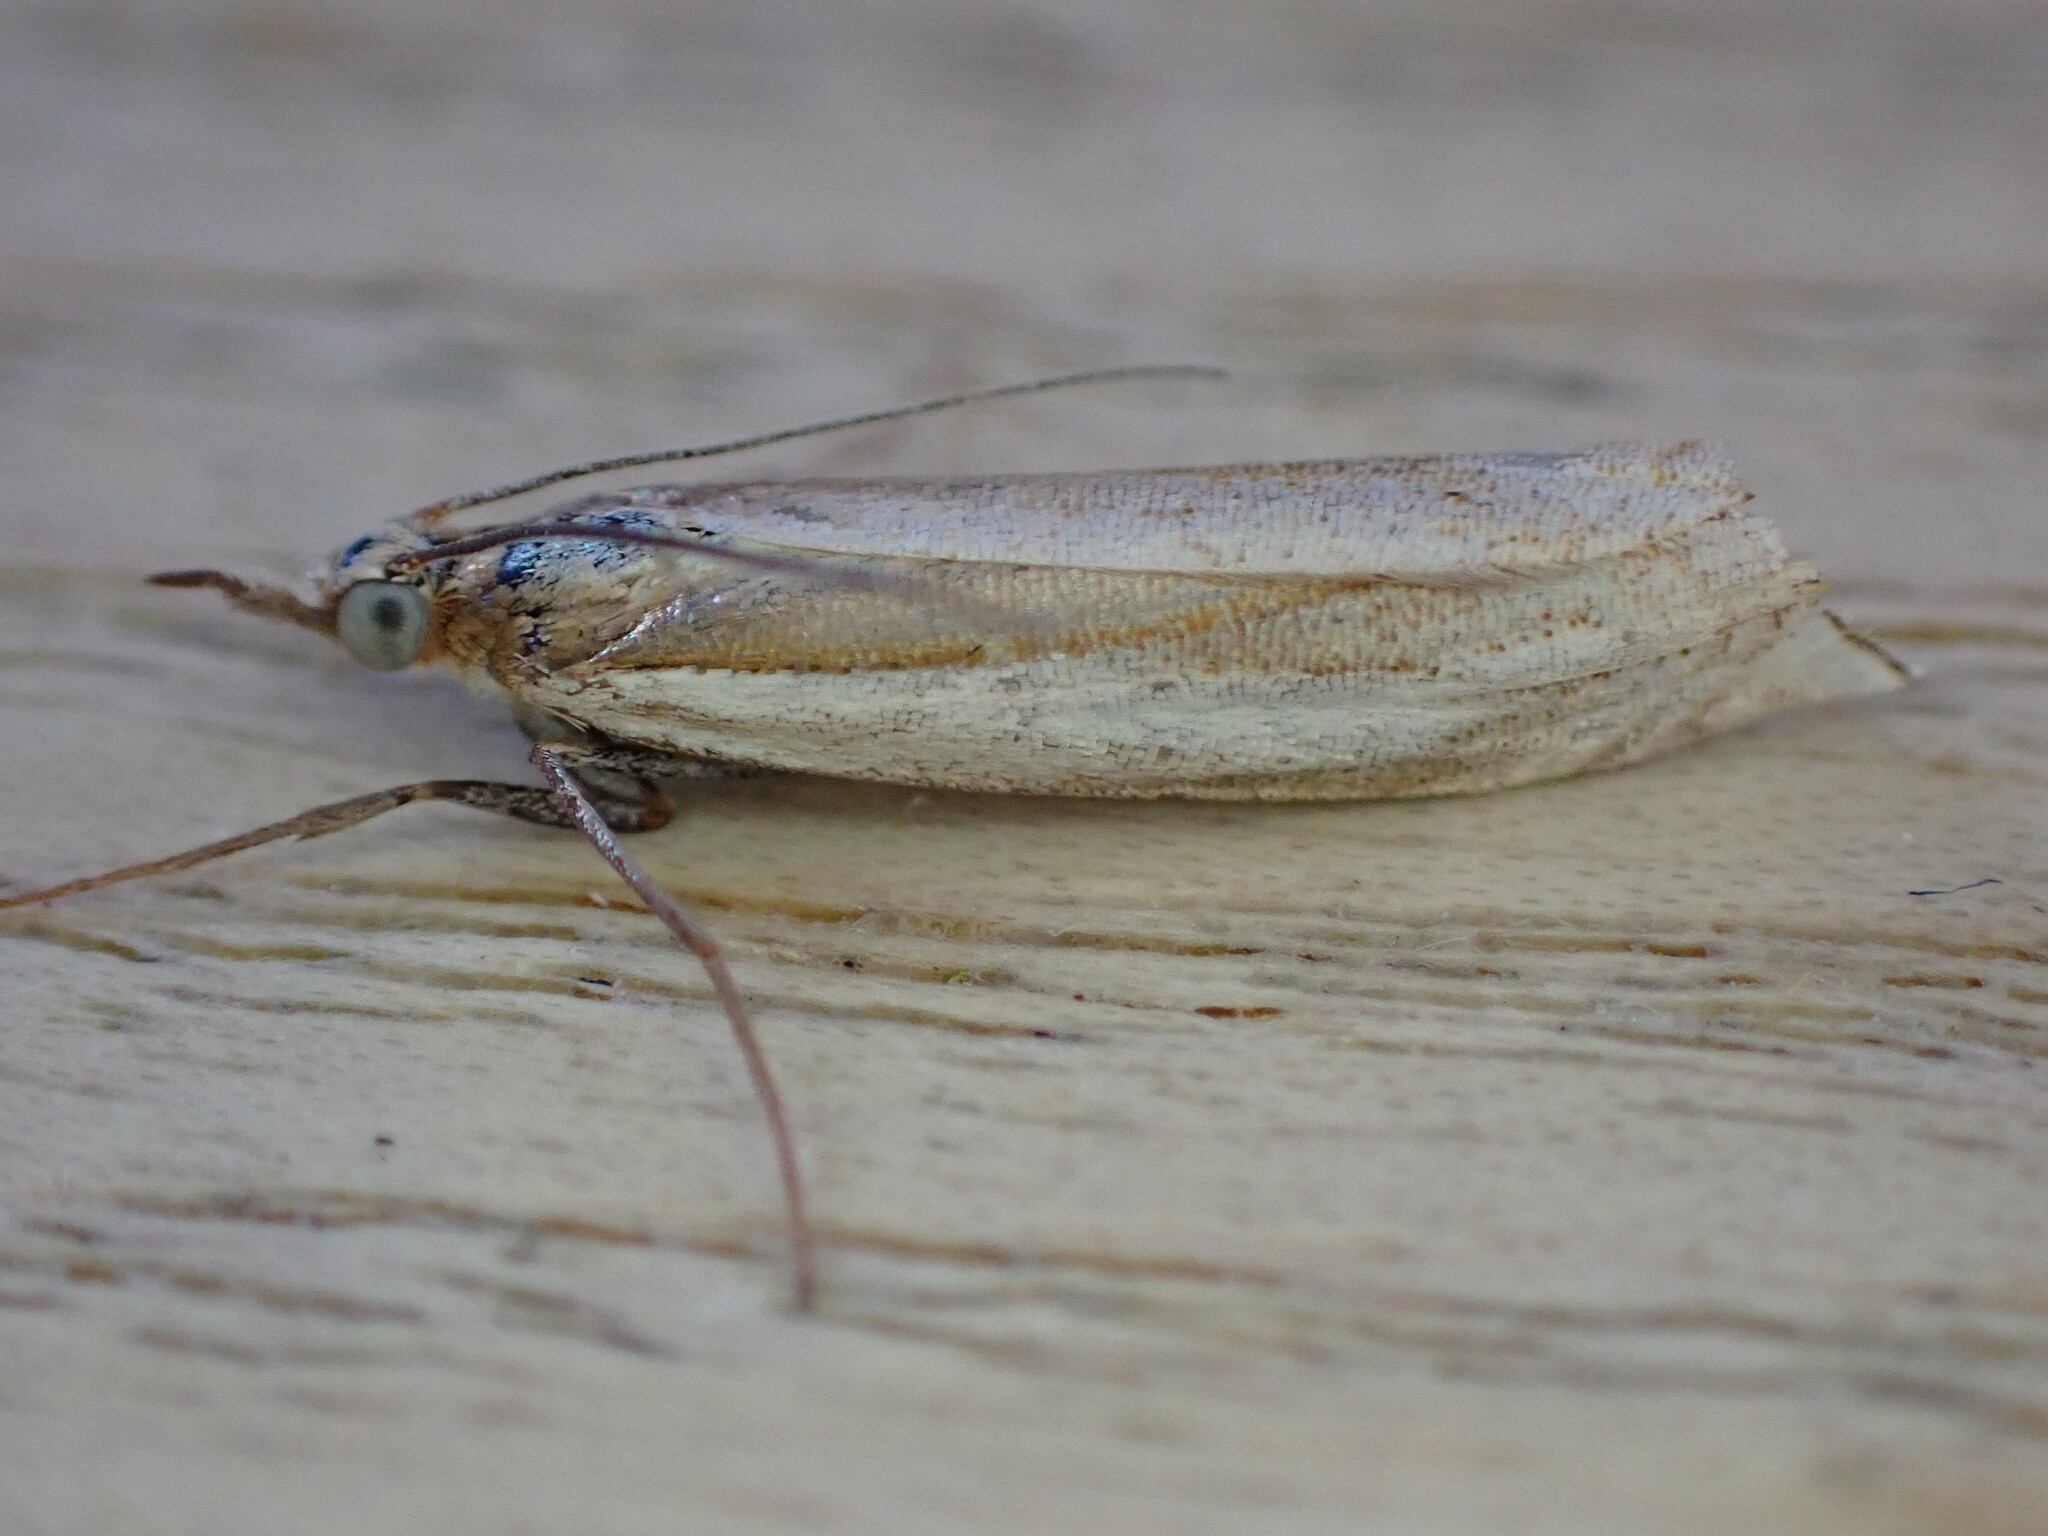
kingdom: Animalia
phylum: Arthropoda
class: Insecta
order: Lepidoptera
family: Crambidae
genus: Crambus
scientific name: Crambus pascuella
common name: Inlaid grass-veneer
